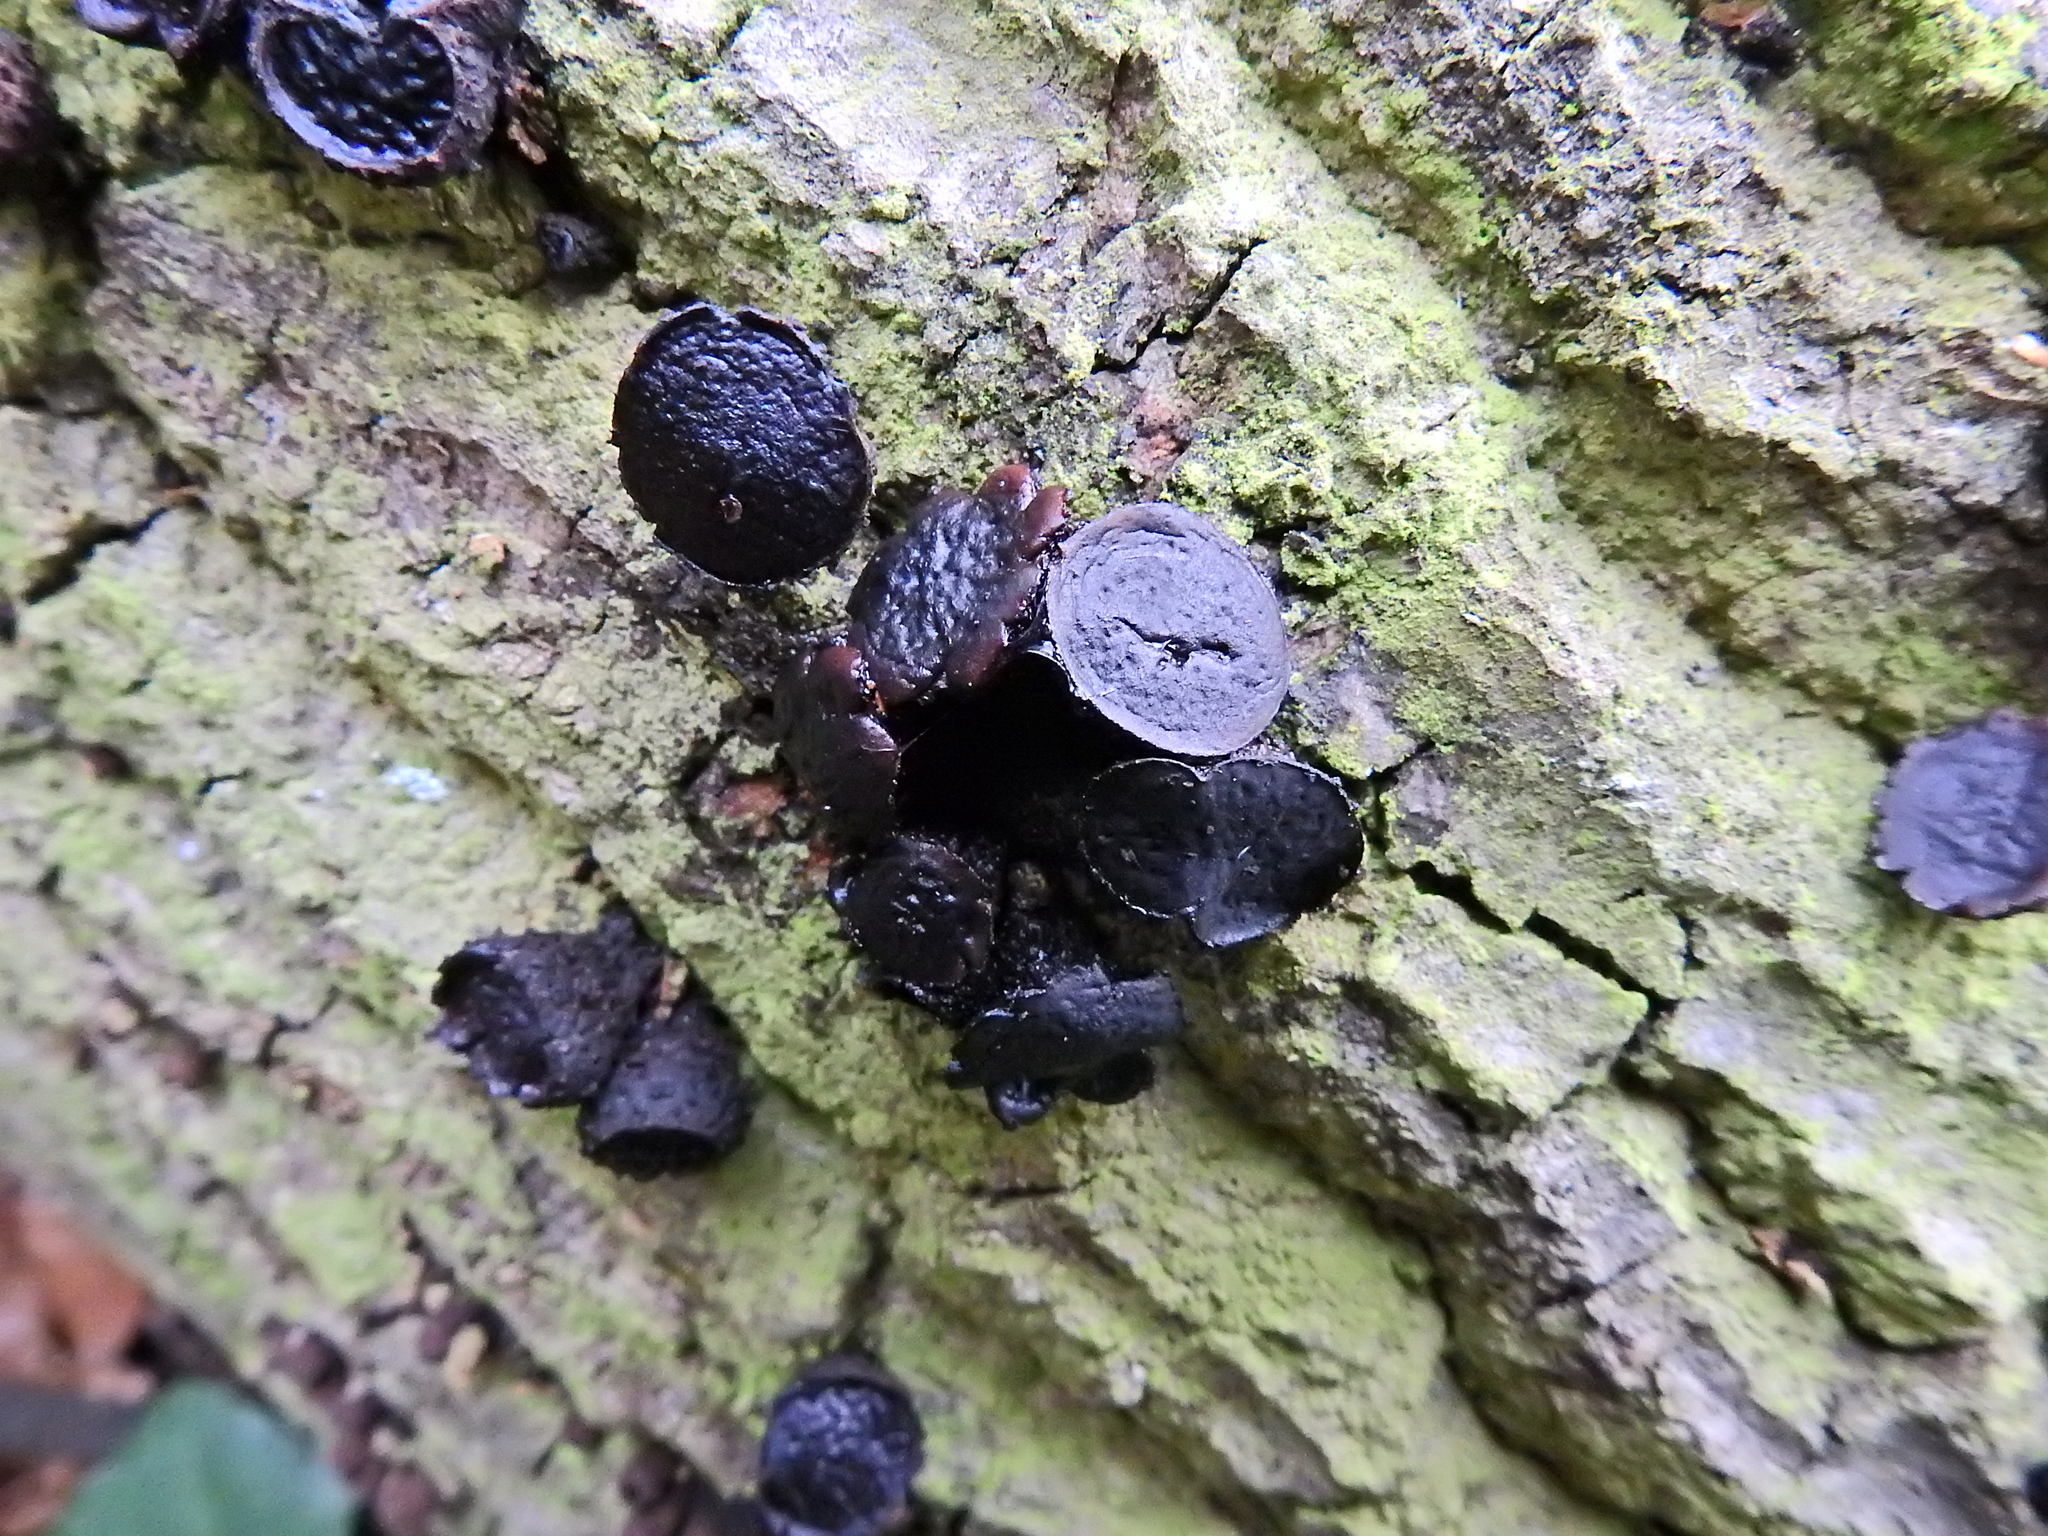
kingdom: Fungi
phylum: Ascomycota
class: Leotiomycetes
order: Phacidiales
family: Phacidiaceae
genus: Bulgaria
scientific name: Bulgaria inquinans
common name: Black bulgar
